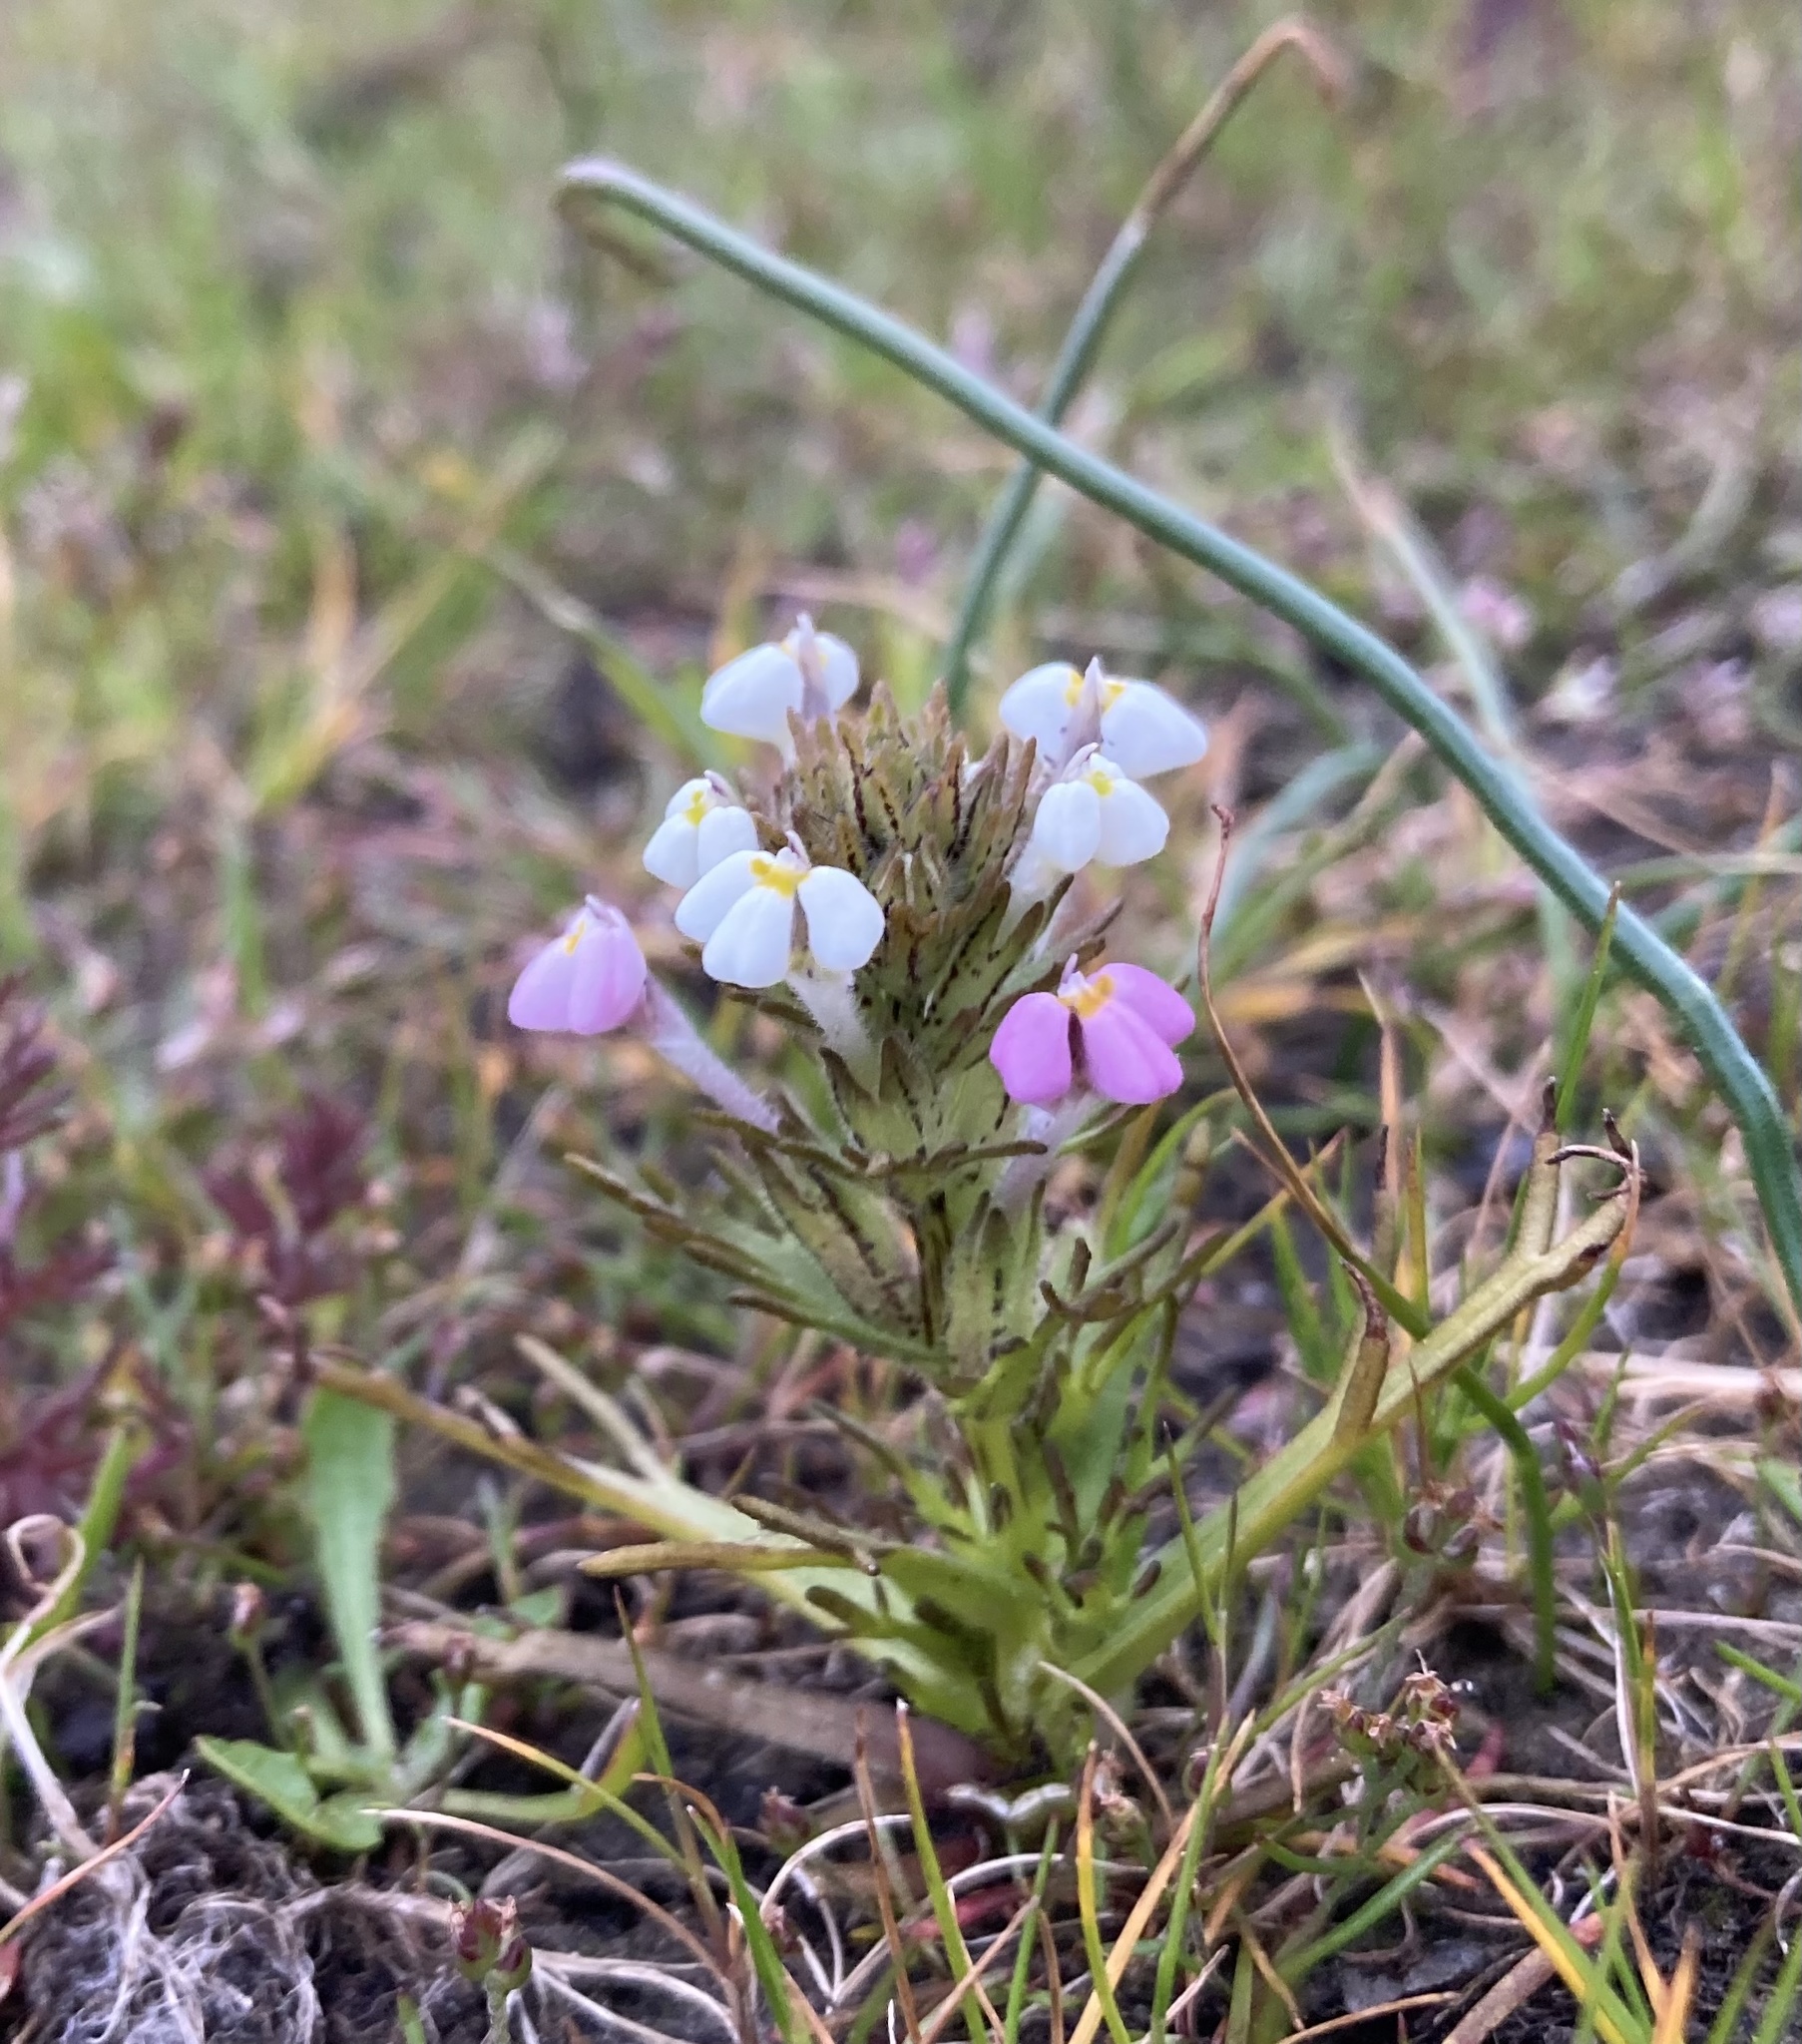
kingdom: Plantae
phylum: Tracheophyta
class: Magnoliopsida
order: Lamiales
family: Orobanchaceae
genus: Triphysaria
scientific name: Triphysaria versicolor
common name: Bearded false owl-clover
